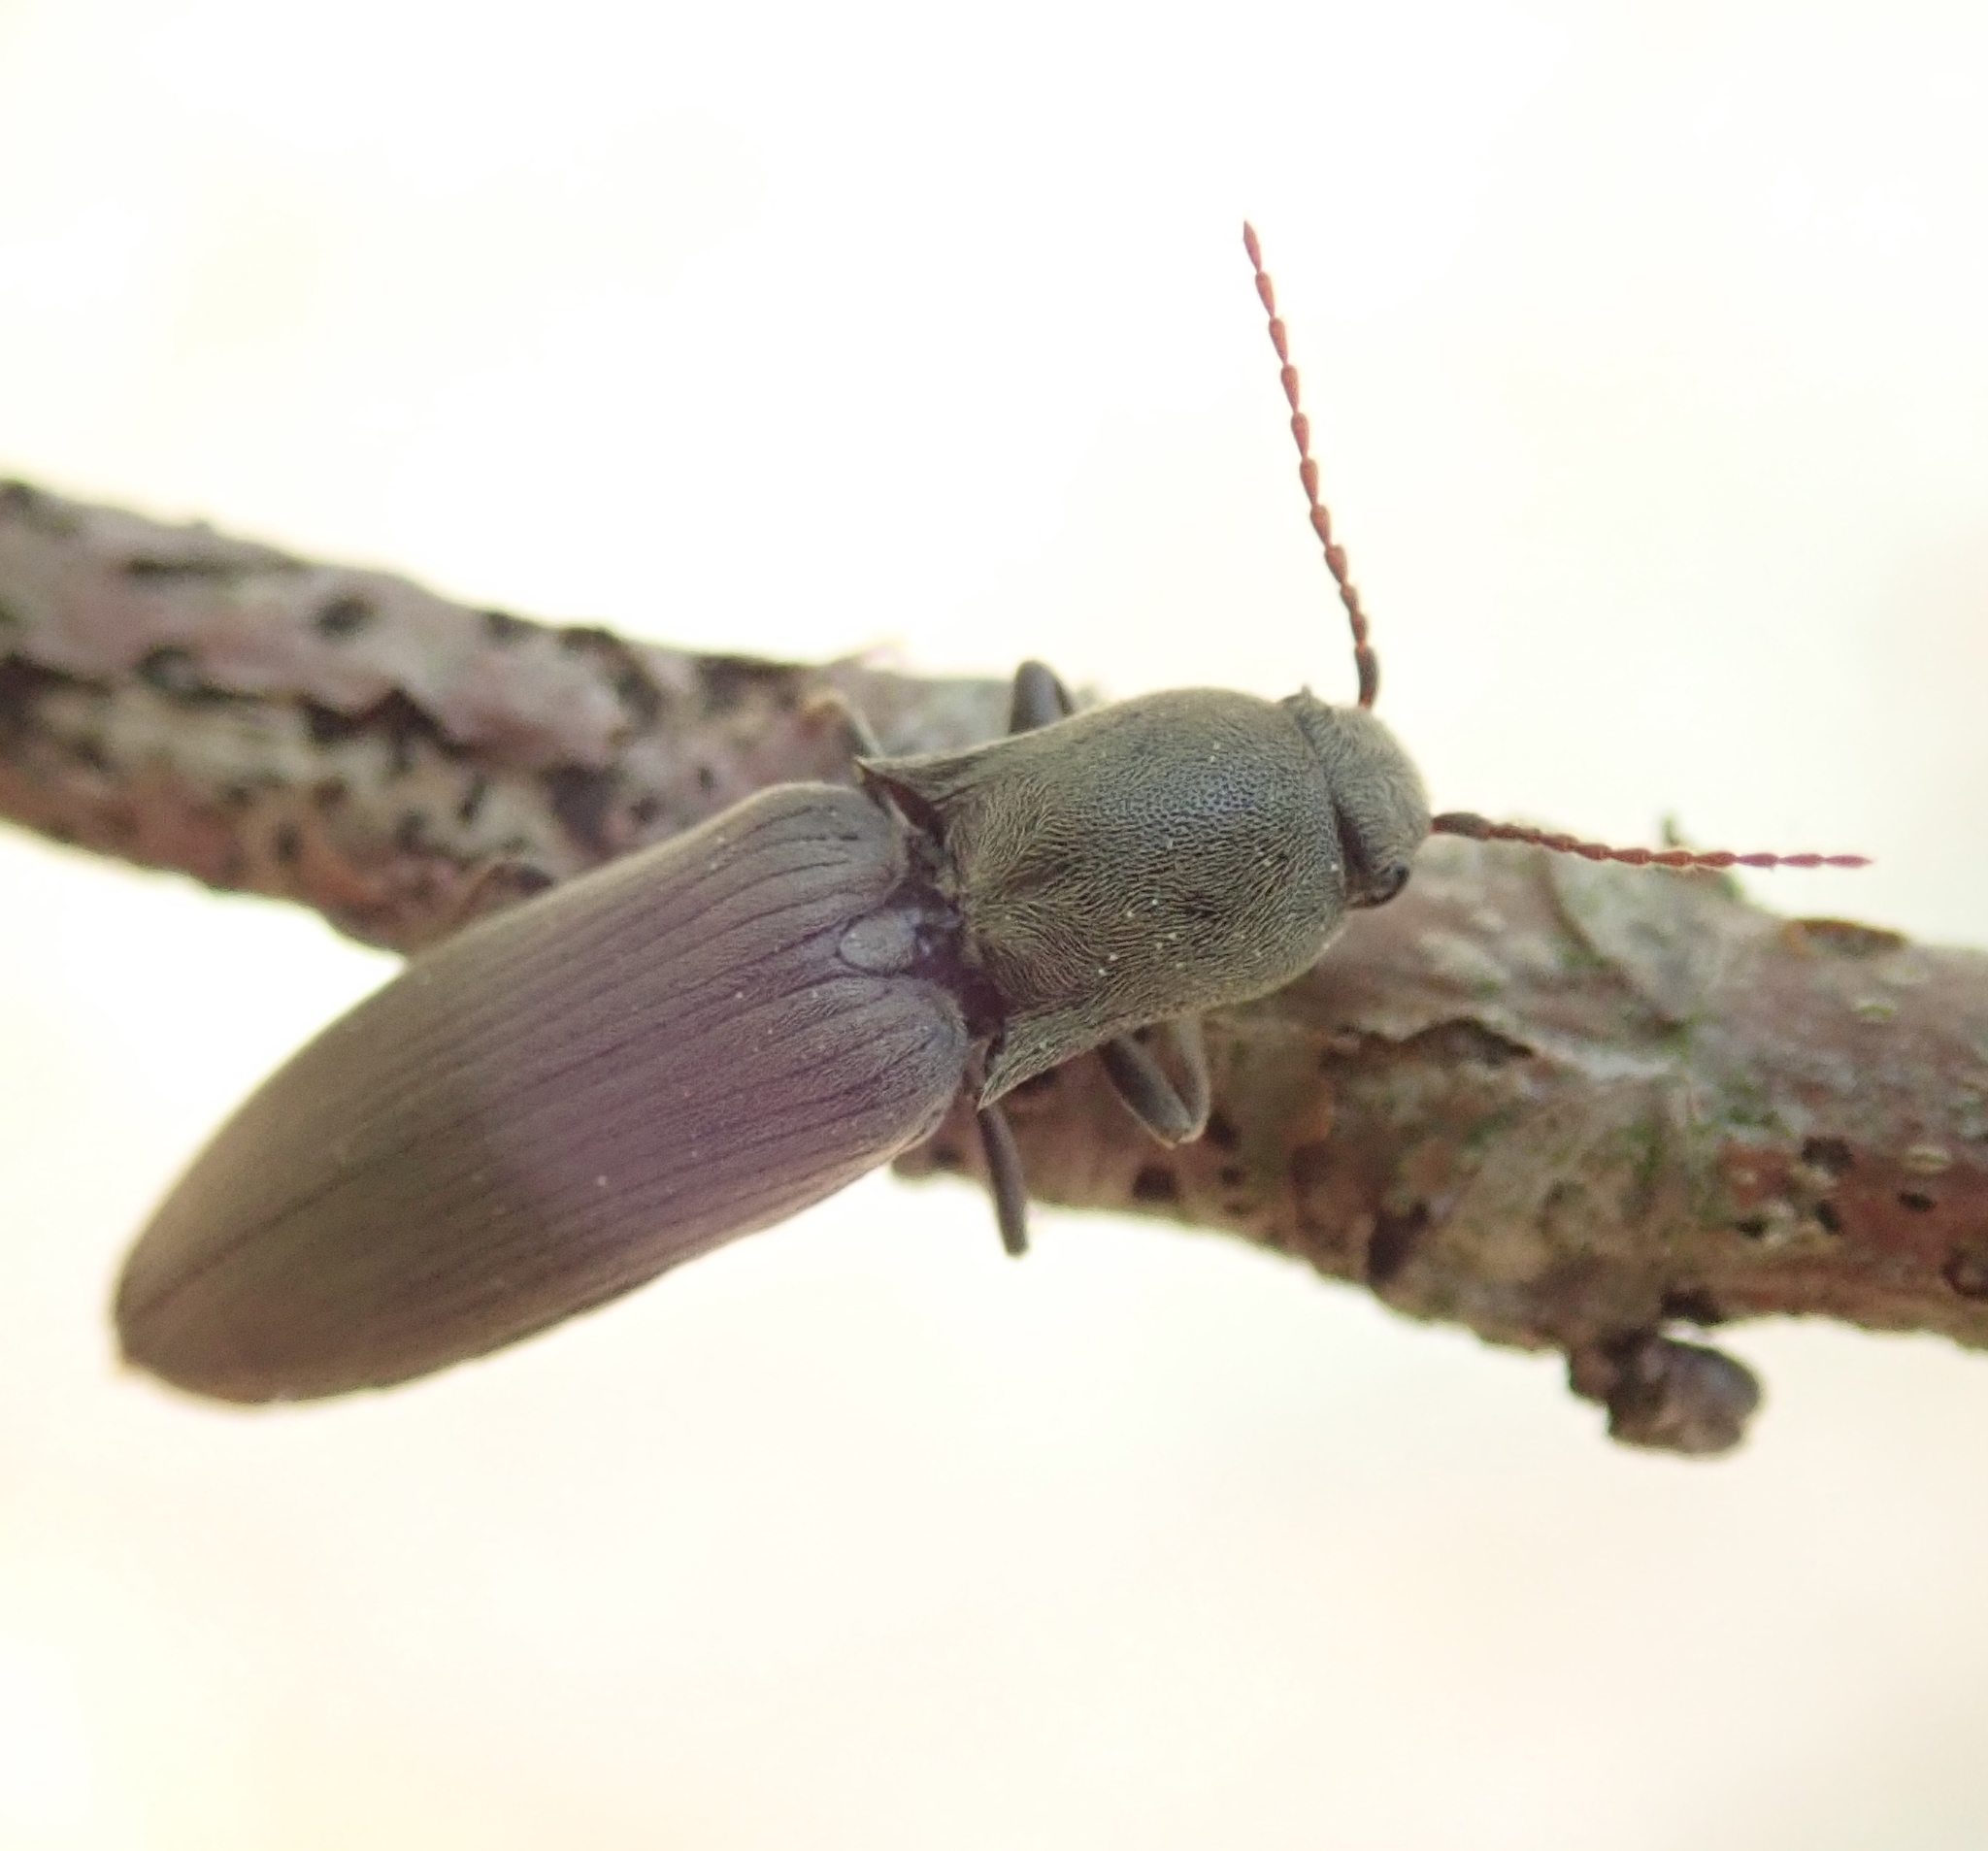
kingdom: Animalia
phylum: Arthropoda
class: Insecta
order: Coleoptera
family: Elateridae
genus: Agriotes
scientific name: Agriotes pilosellus
